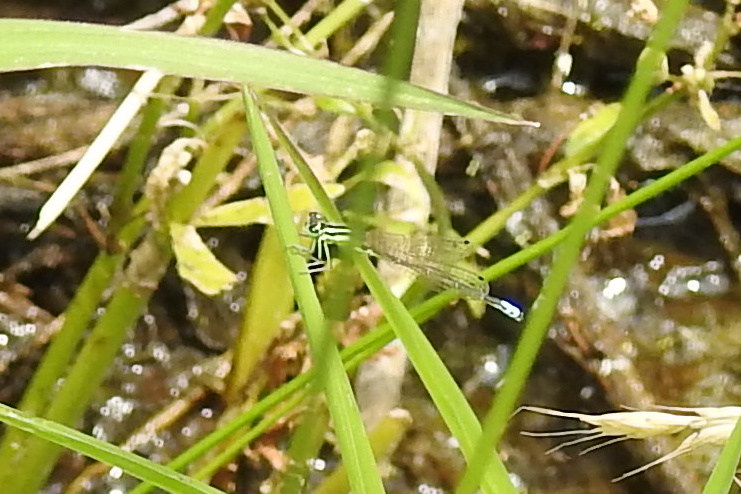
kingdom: Animalia
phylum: Arthropoda
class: Insecta
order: Odonata
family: Coenagrionidae
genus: Ischnura
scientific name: Ischnura verticalis
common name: Eastern forktail
